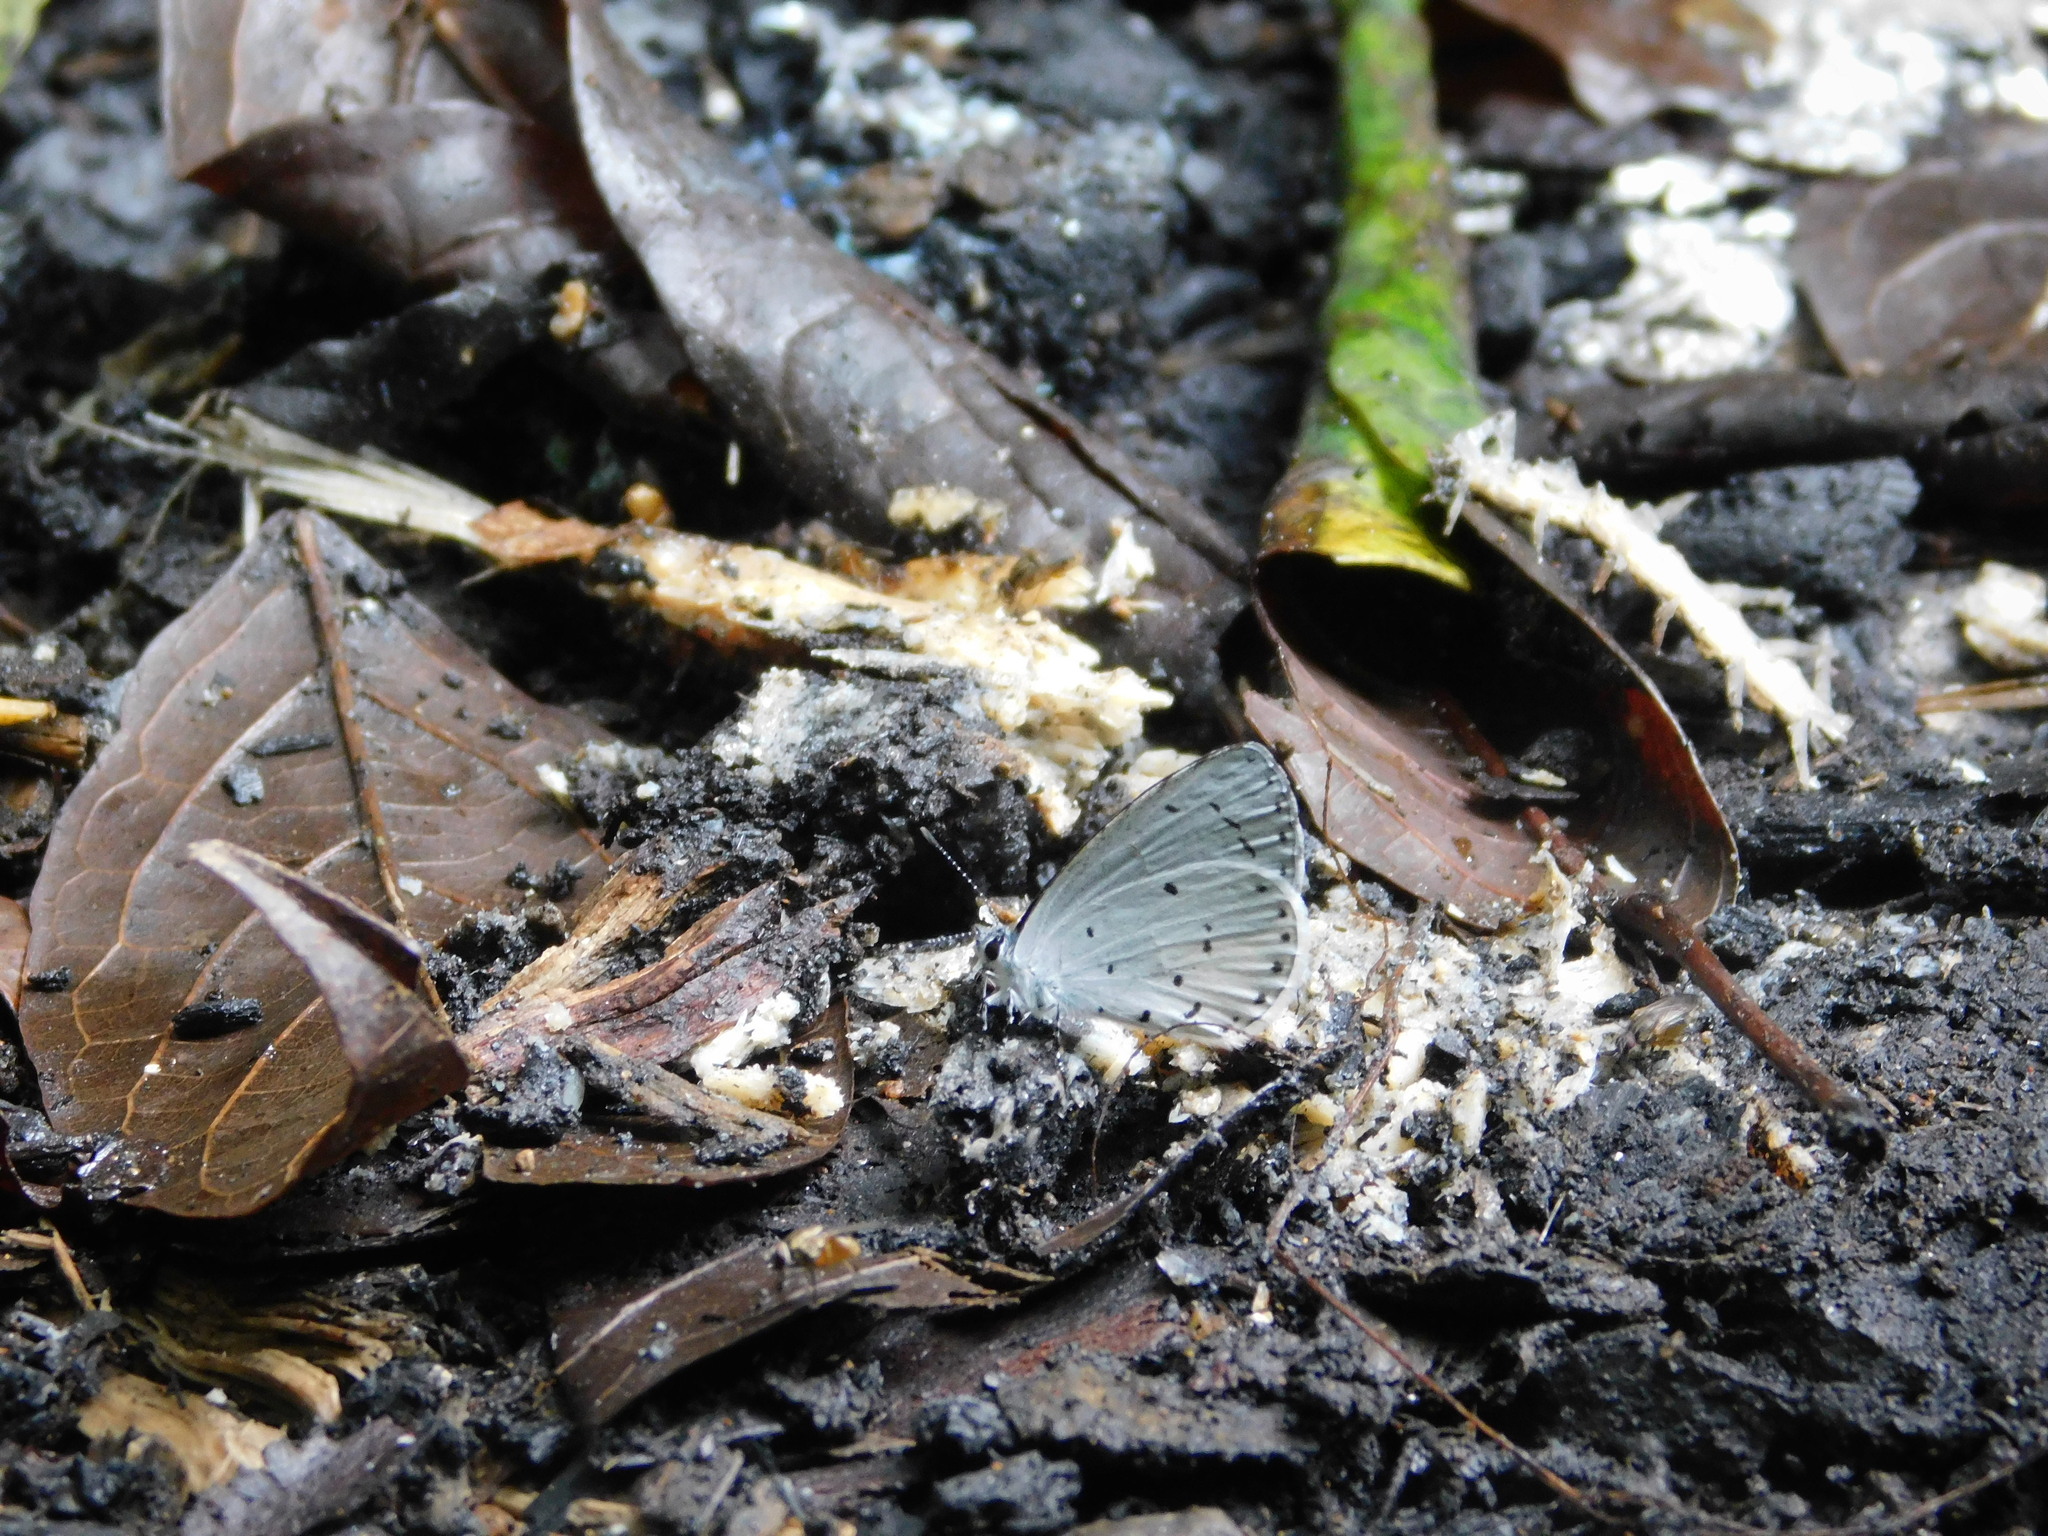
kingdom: Animalia
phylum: Arthropoda
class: Insecta
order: Lepidoptera
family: Lycaenidae
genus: Udara
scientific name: Udara
